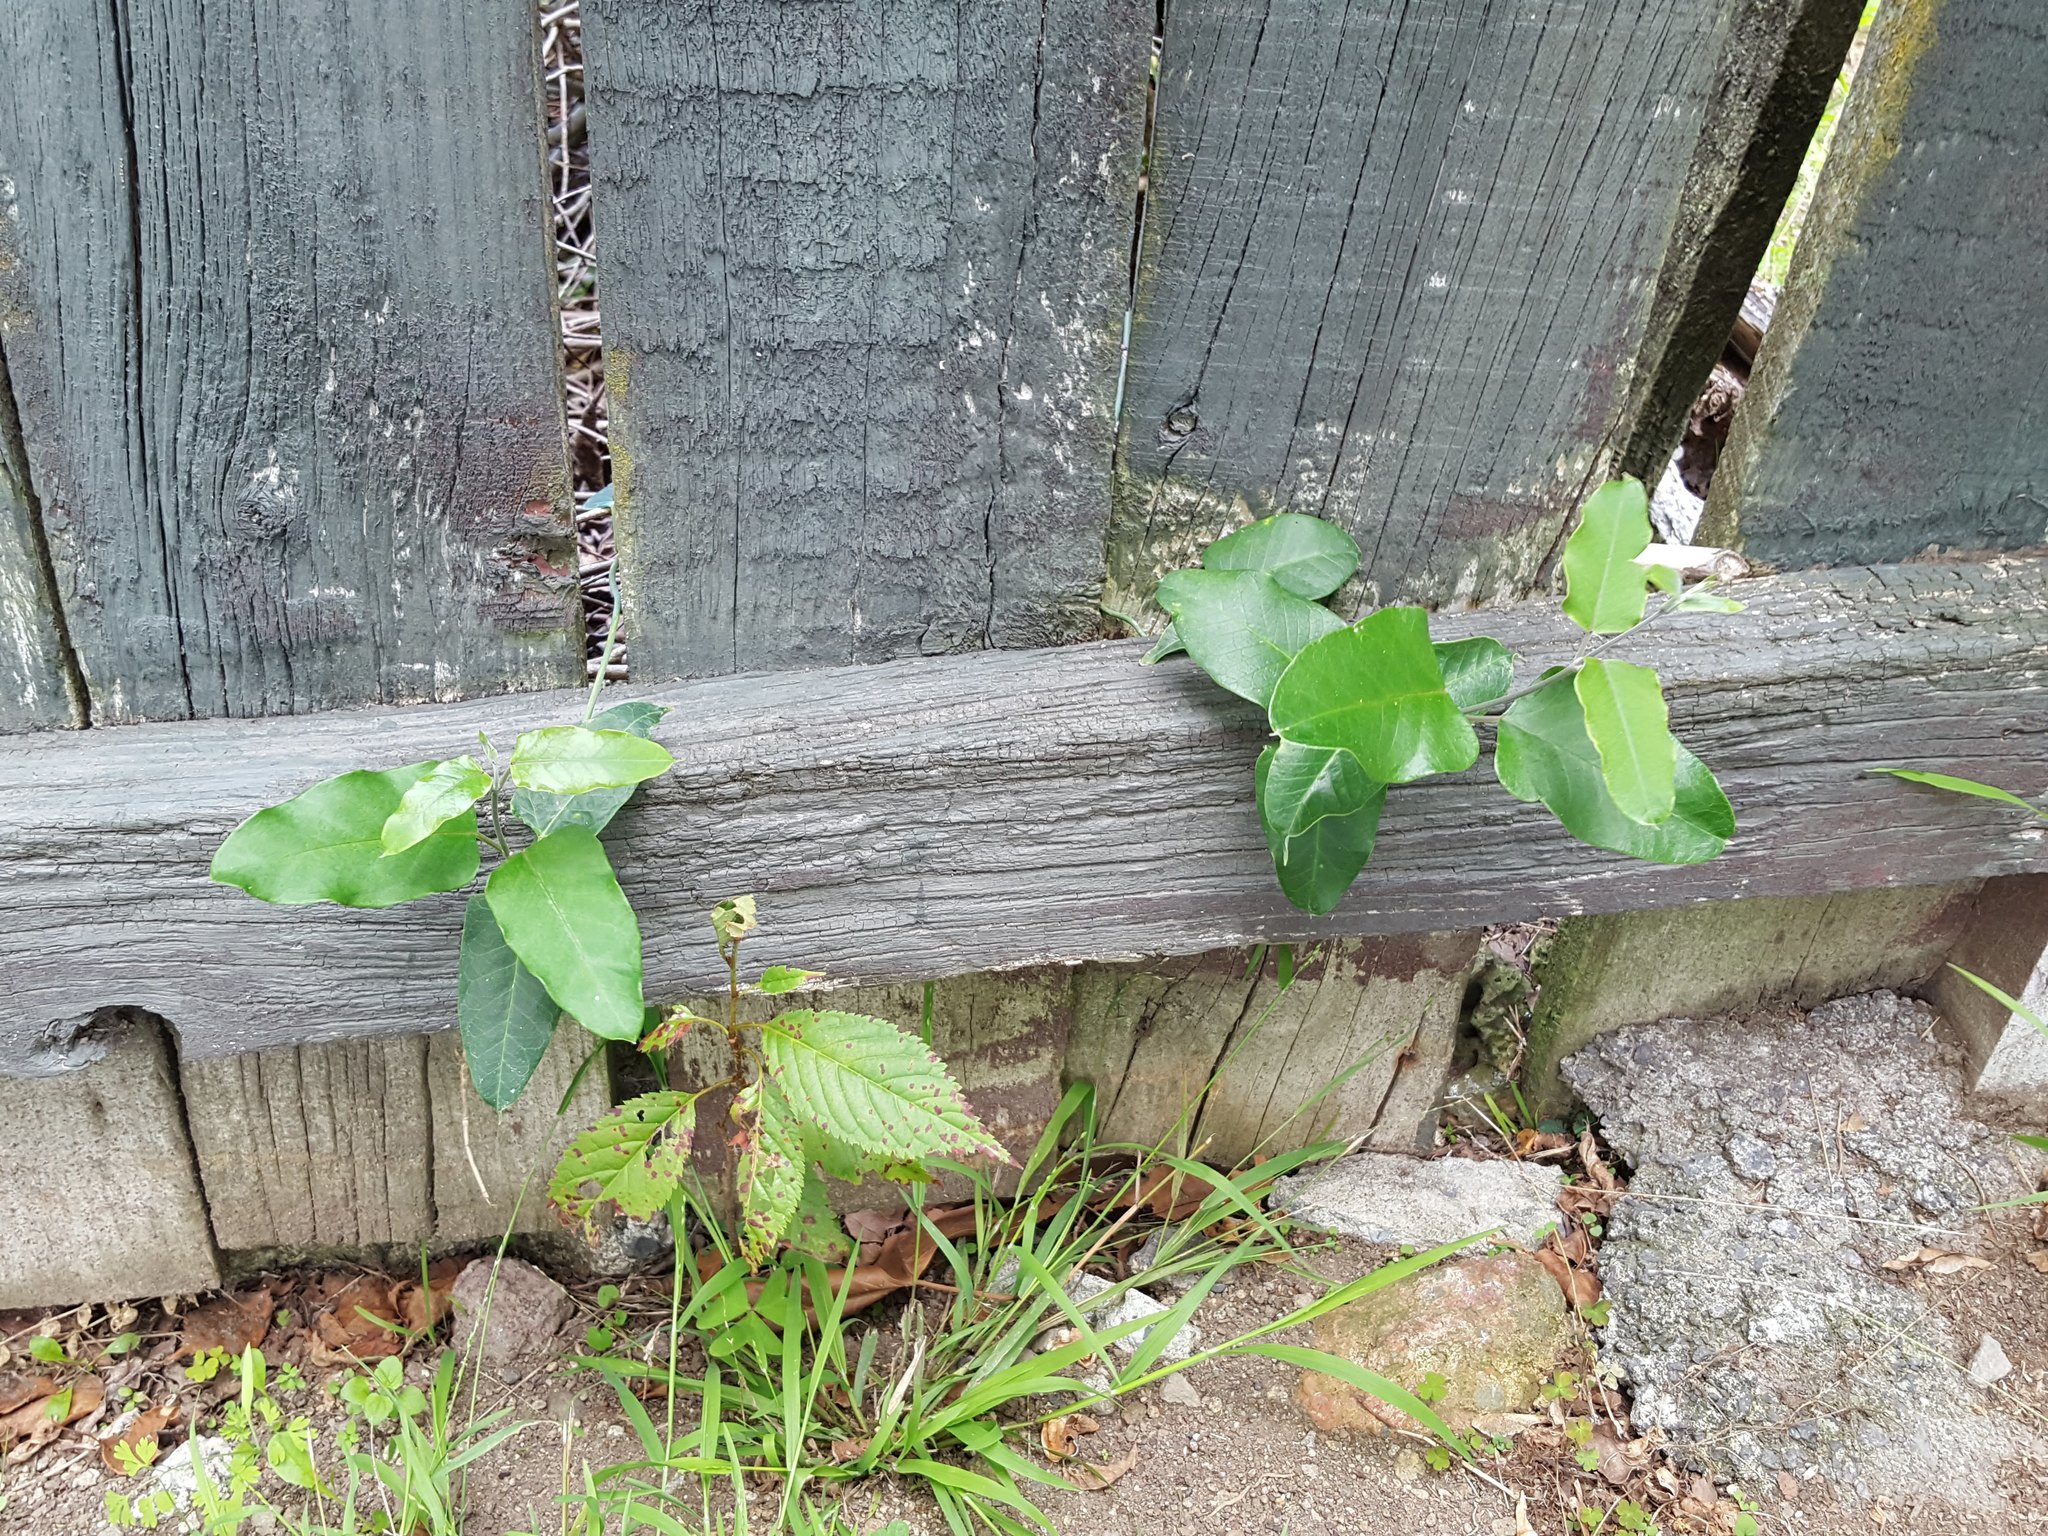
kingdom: Plantae
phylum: Tracheophyta
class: Magnoliopsida
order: Gentianales
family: Apocynaceae
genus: Araujia
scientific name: Araujia sericifera
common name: White bladderflower
